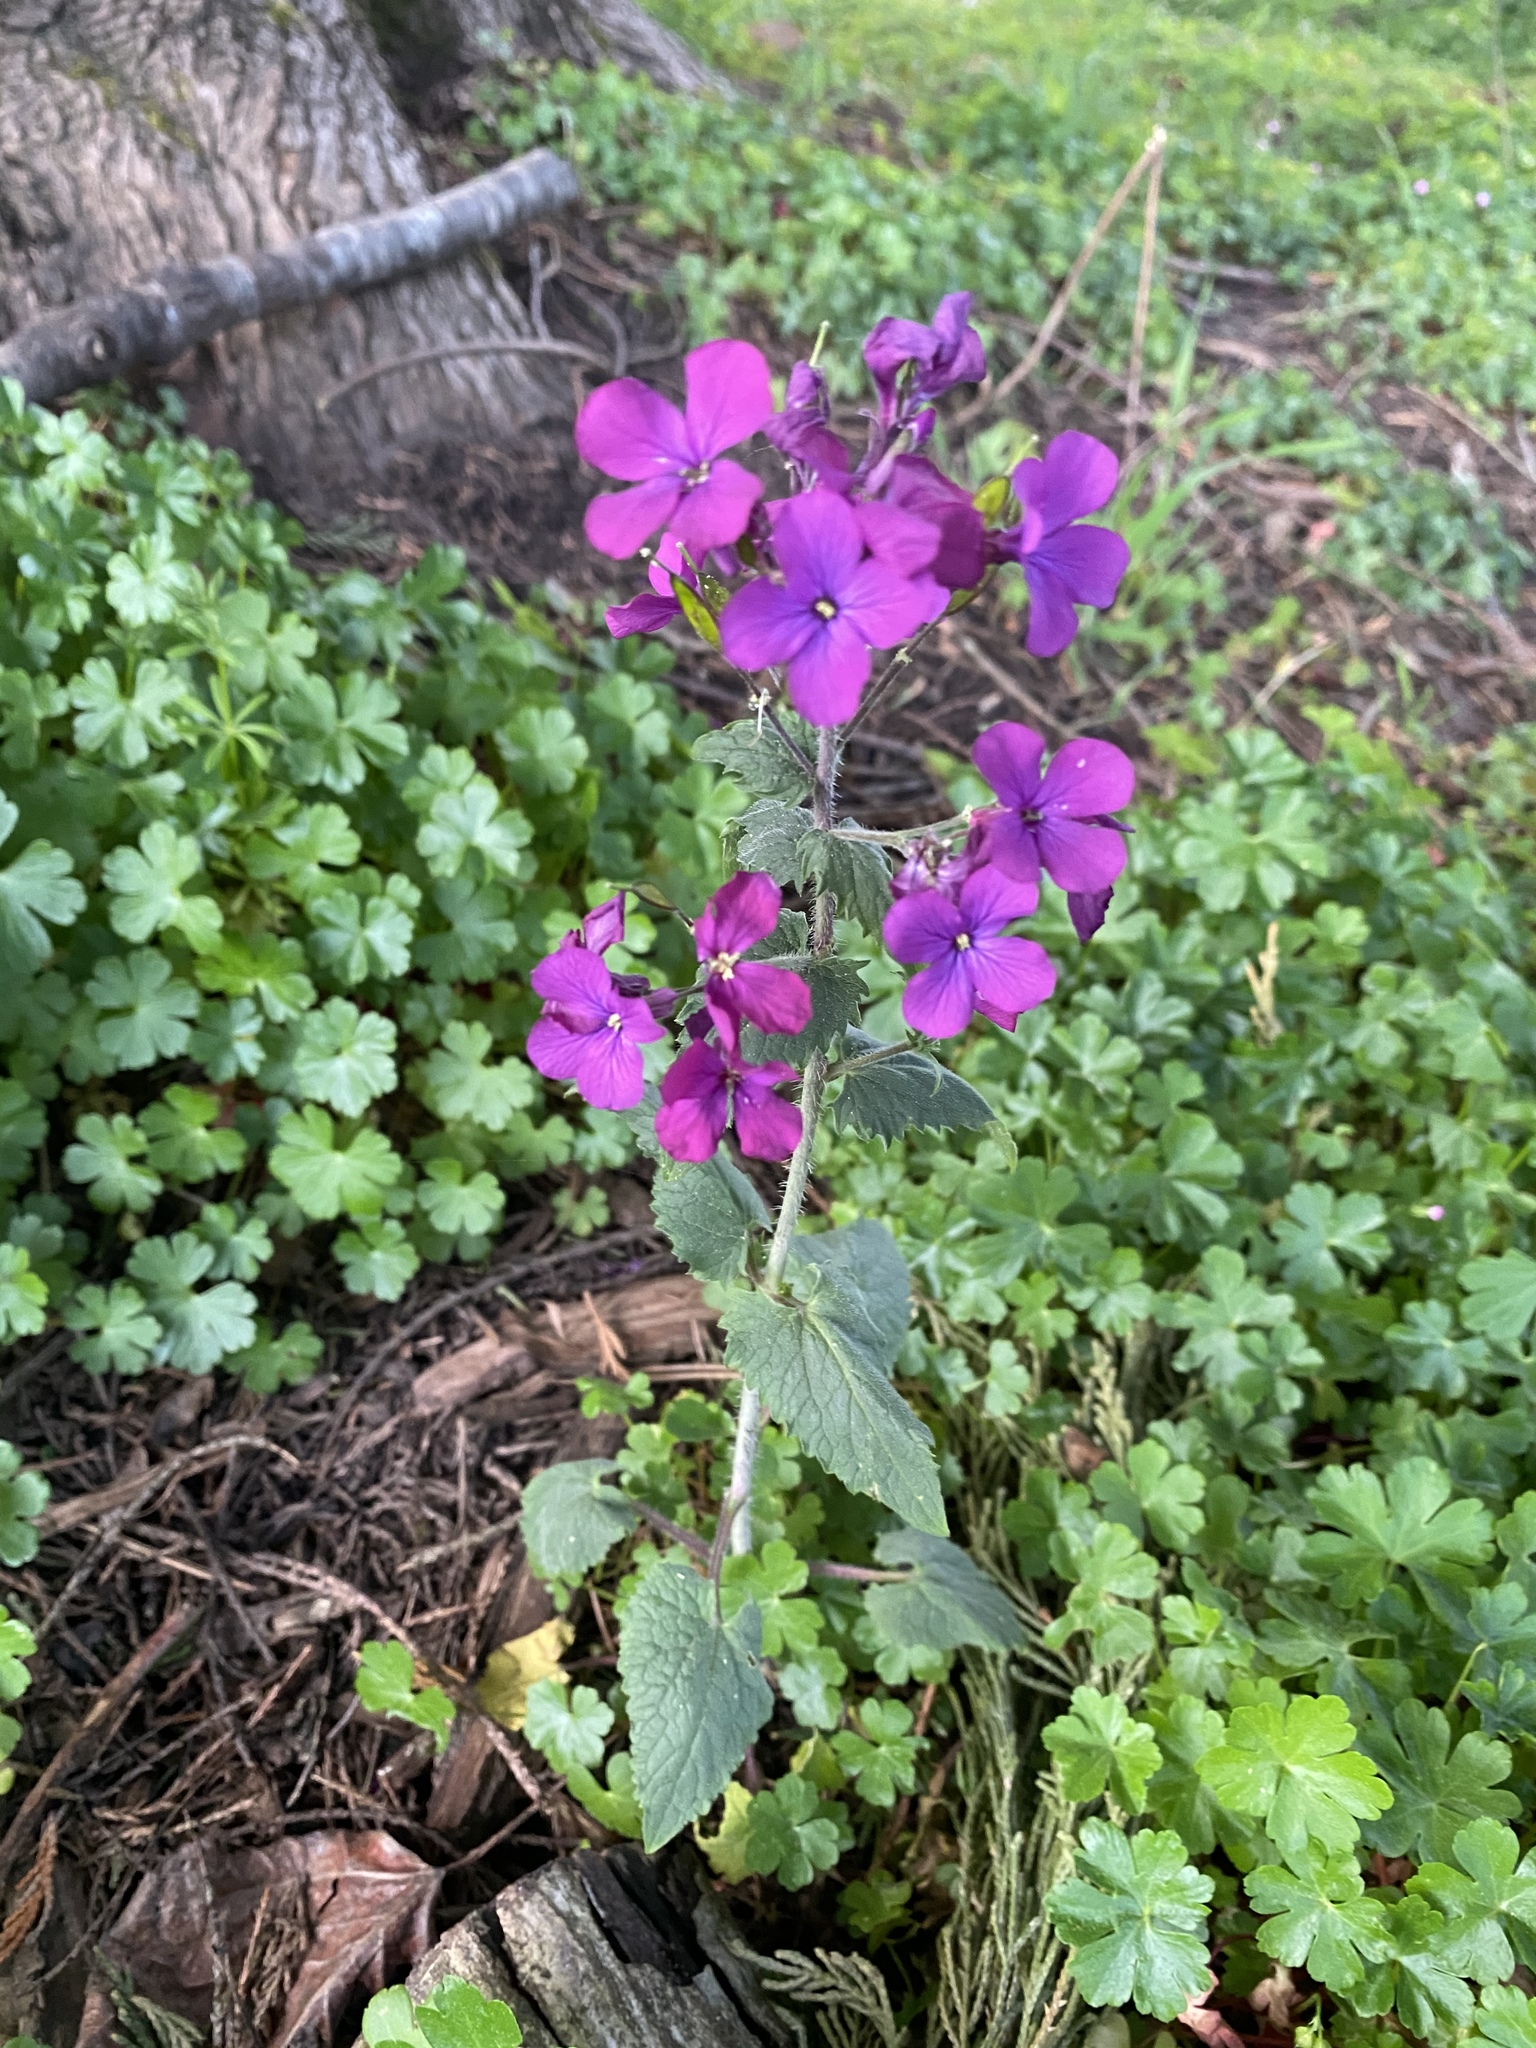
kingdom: Plantae
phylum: Tracheophyta
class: Magnoliopsida
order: Brassicales
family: Brassicaceae
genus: Lunaria
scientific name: Lunaria annua
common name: Honesty
